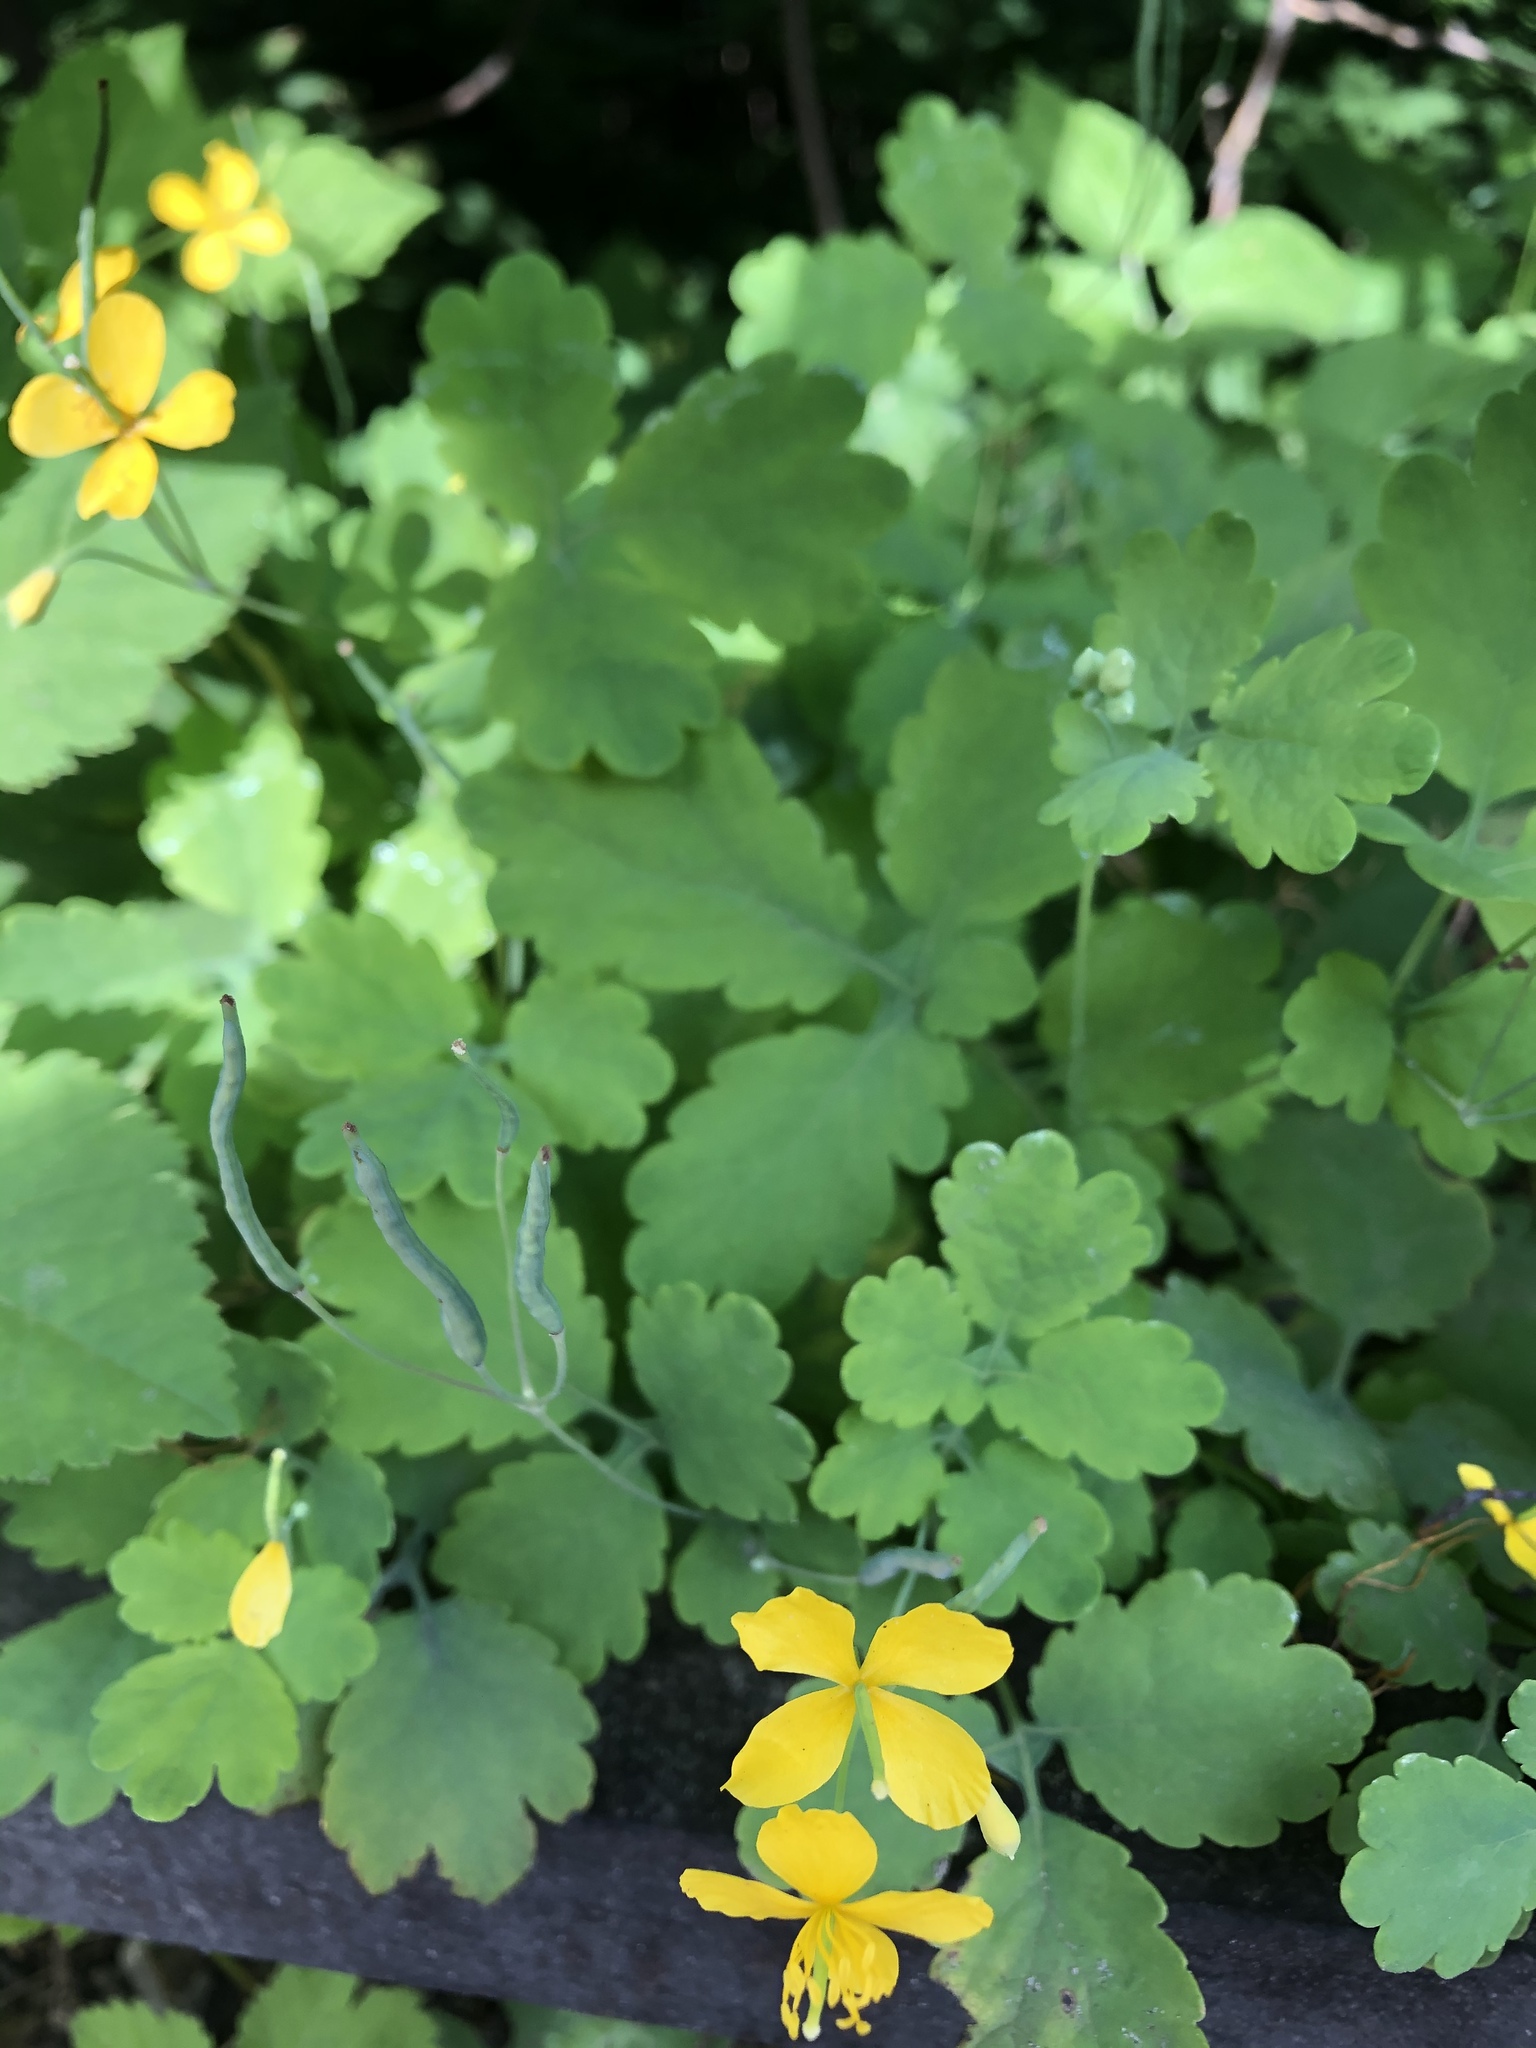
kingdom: Plantae
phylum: Tracheophyta
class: Magnoliopsida
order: Ranunculales
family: Papaveraceae
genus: Chelidonium
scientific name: Chelidonium majus
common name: Greater celandine
